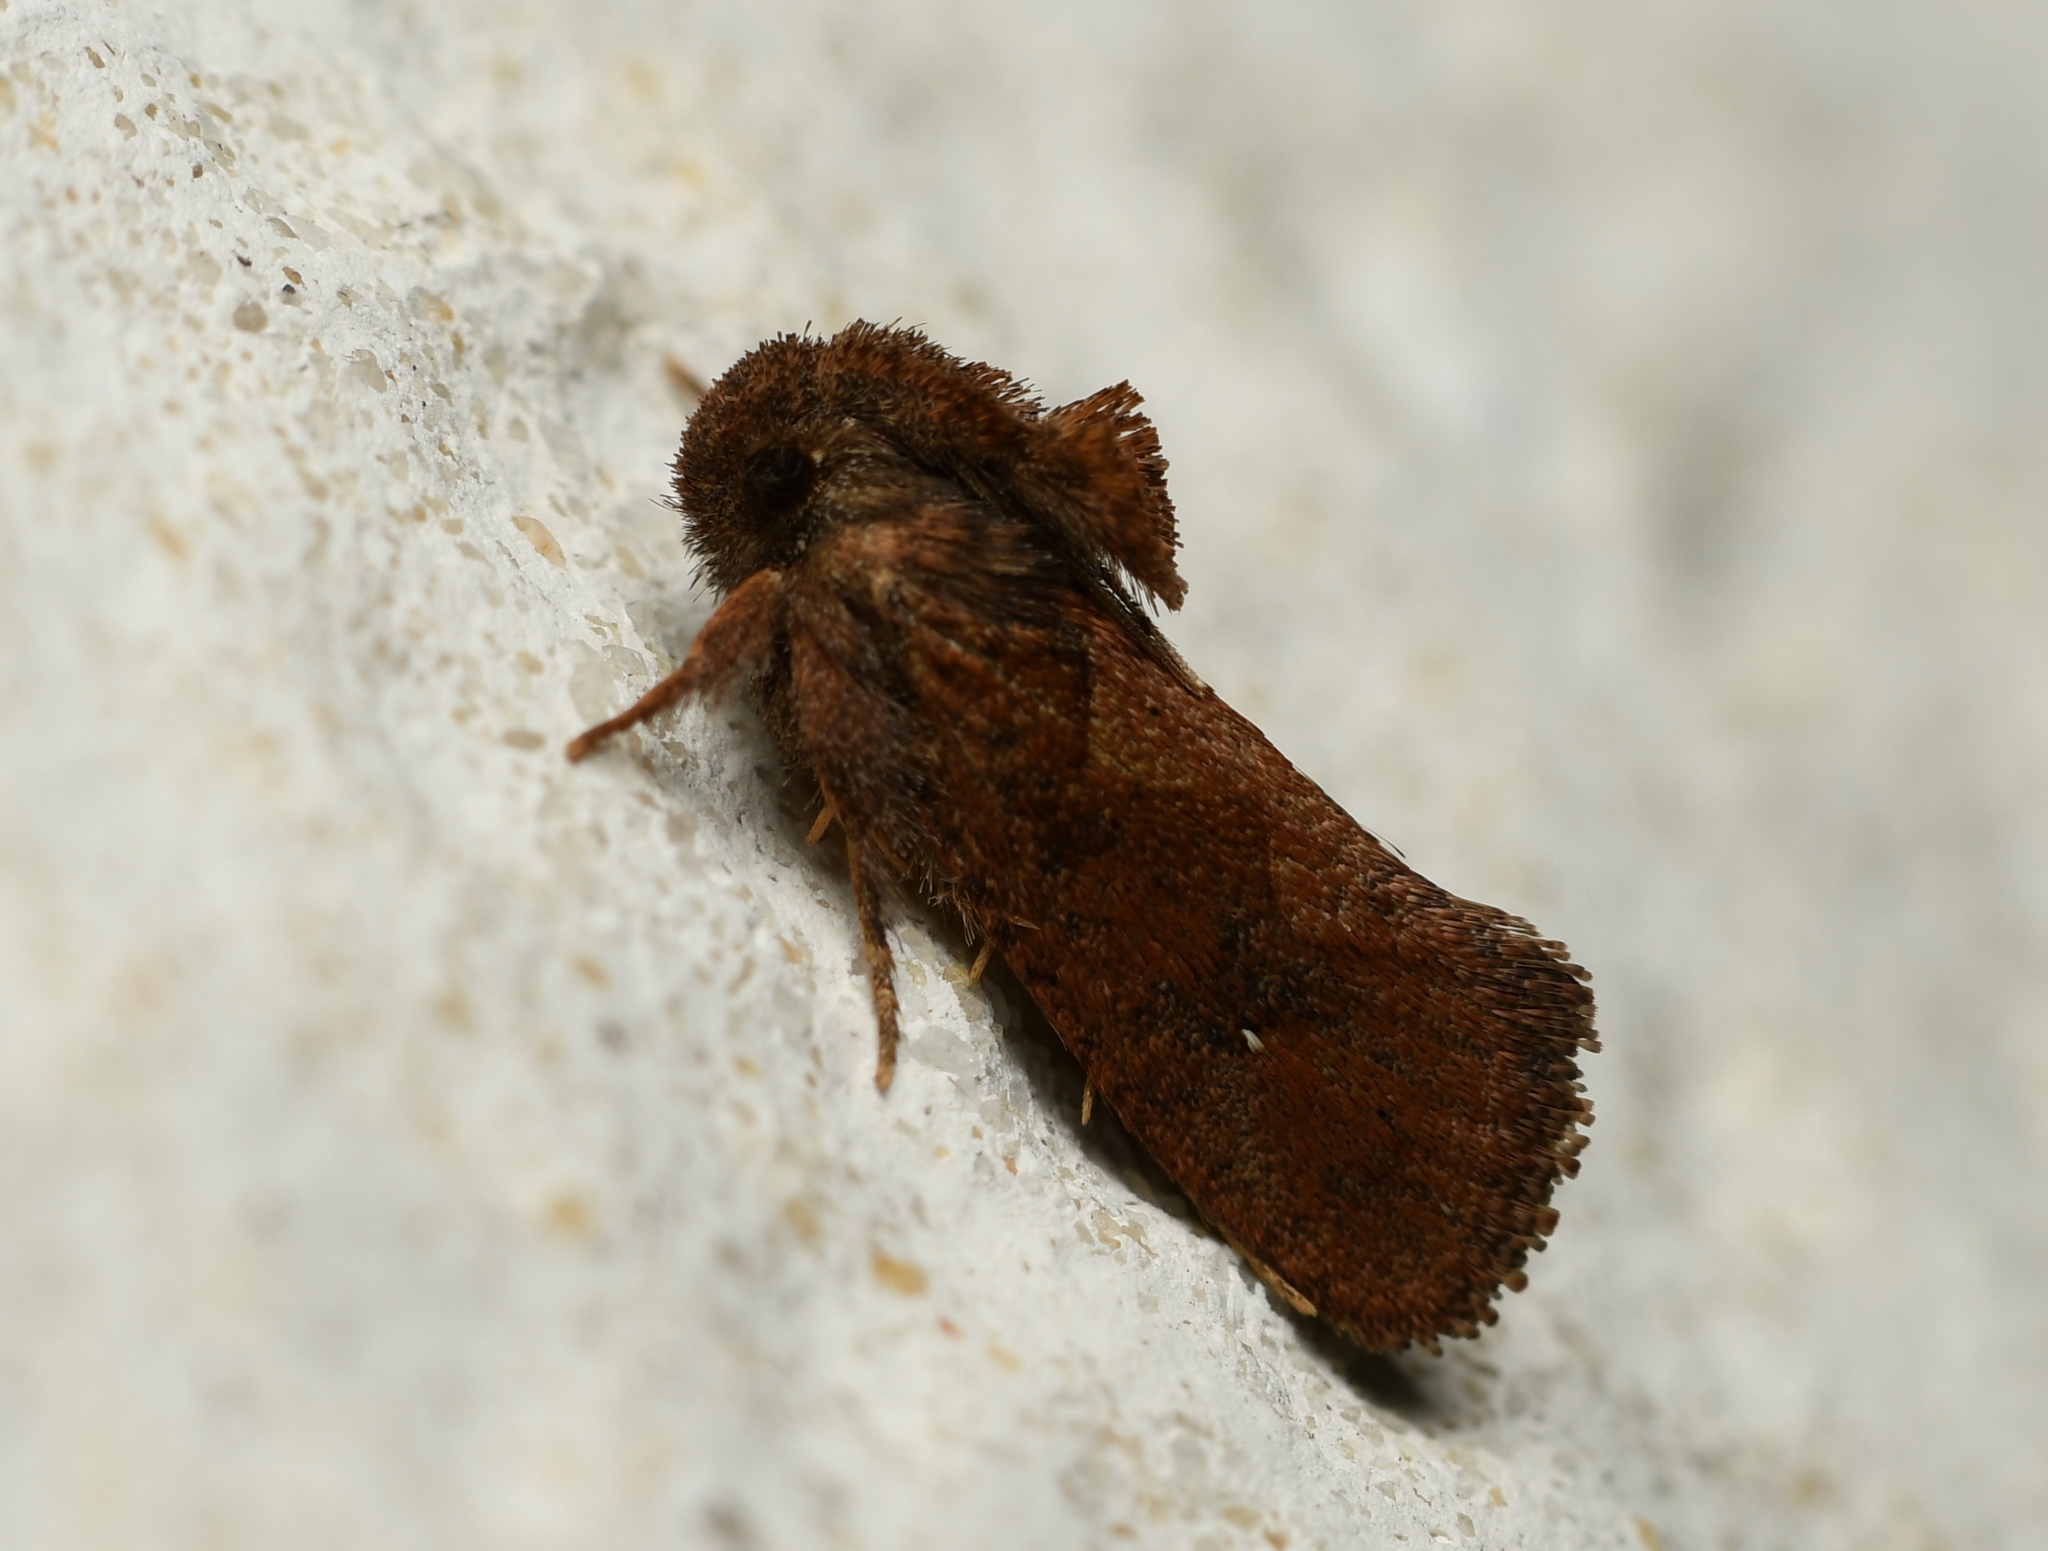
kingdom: Animalia
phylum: Arthropoda
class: Insecta
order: Lepidoptera
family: Tineidae
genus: Acrolophus
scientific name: Acrolophus walsinghami
